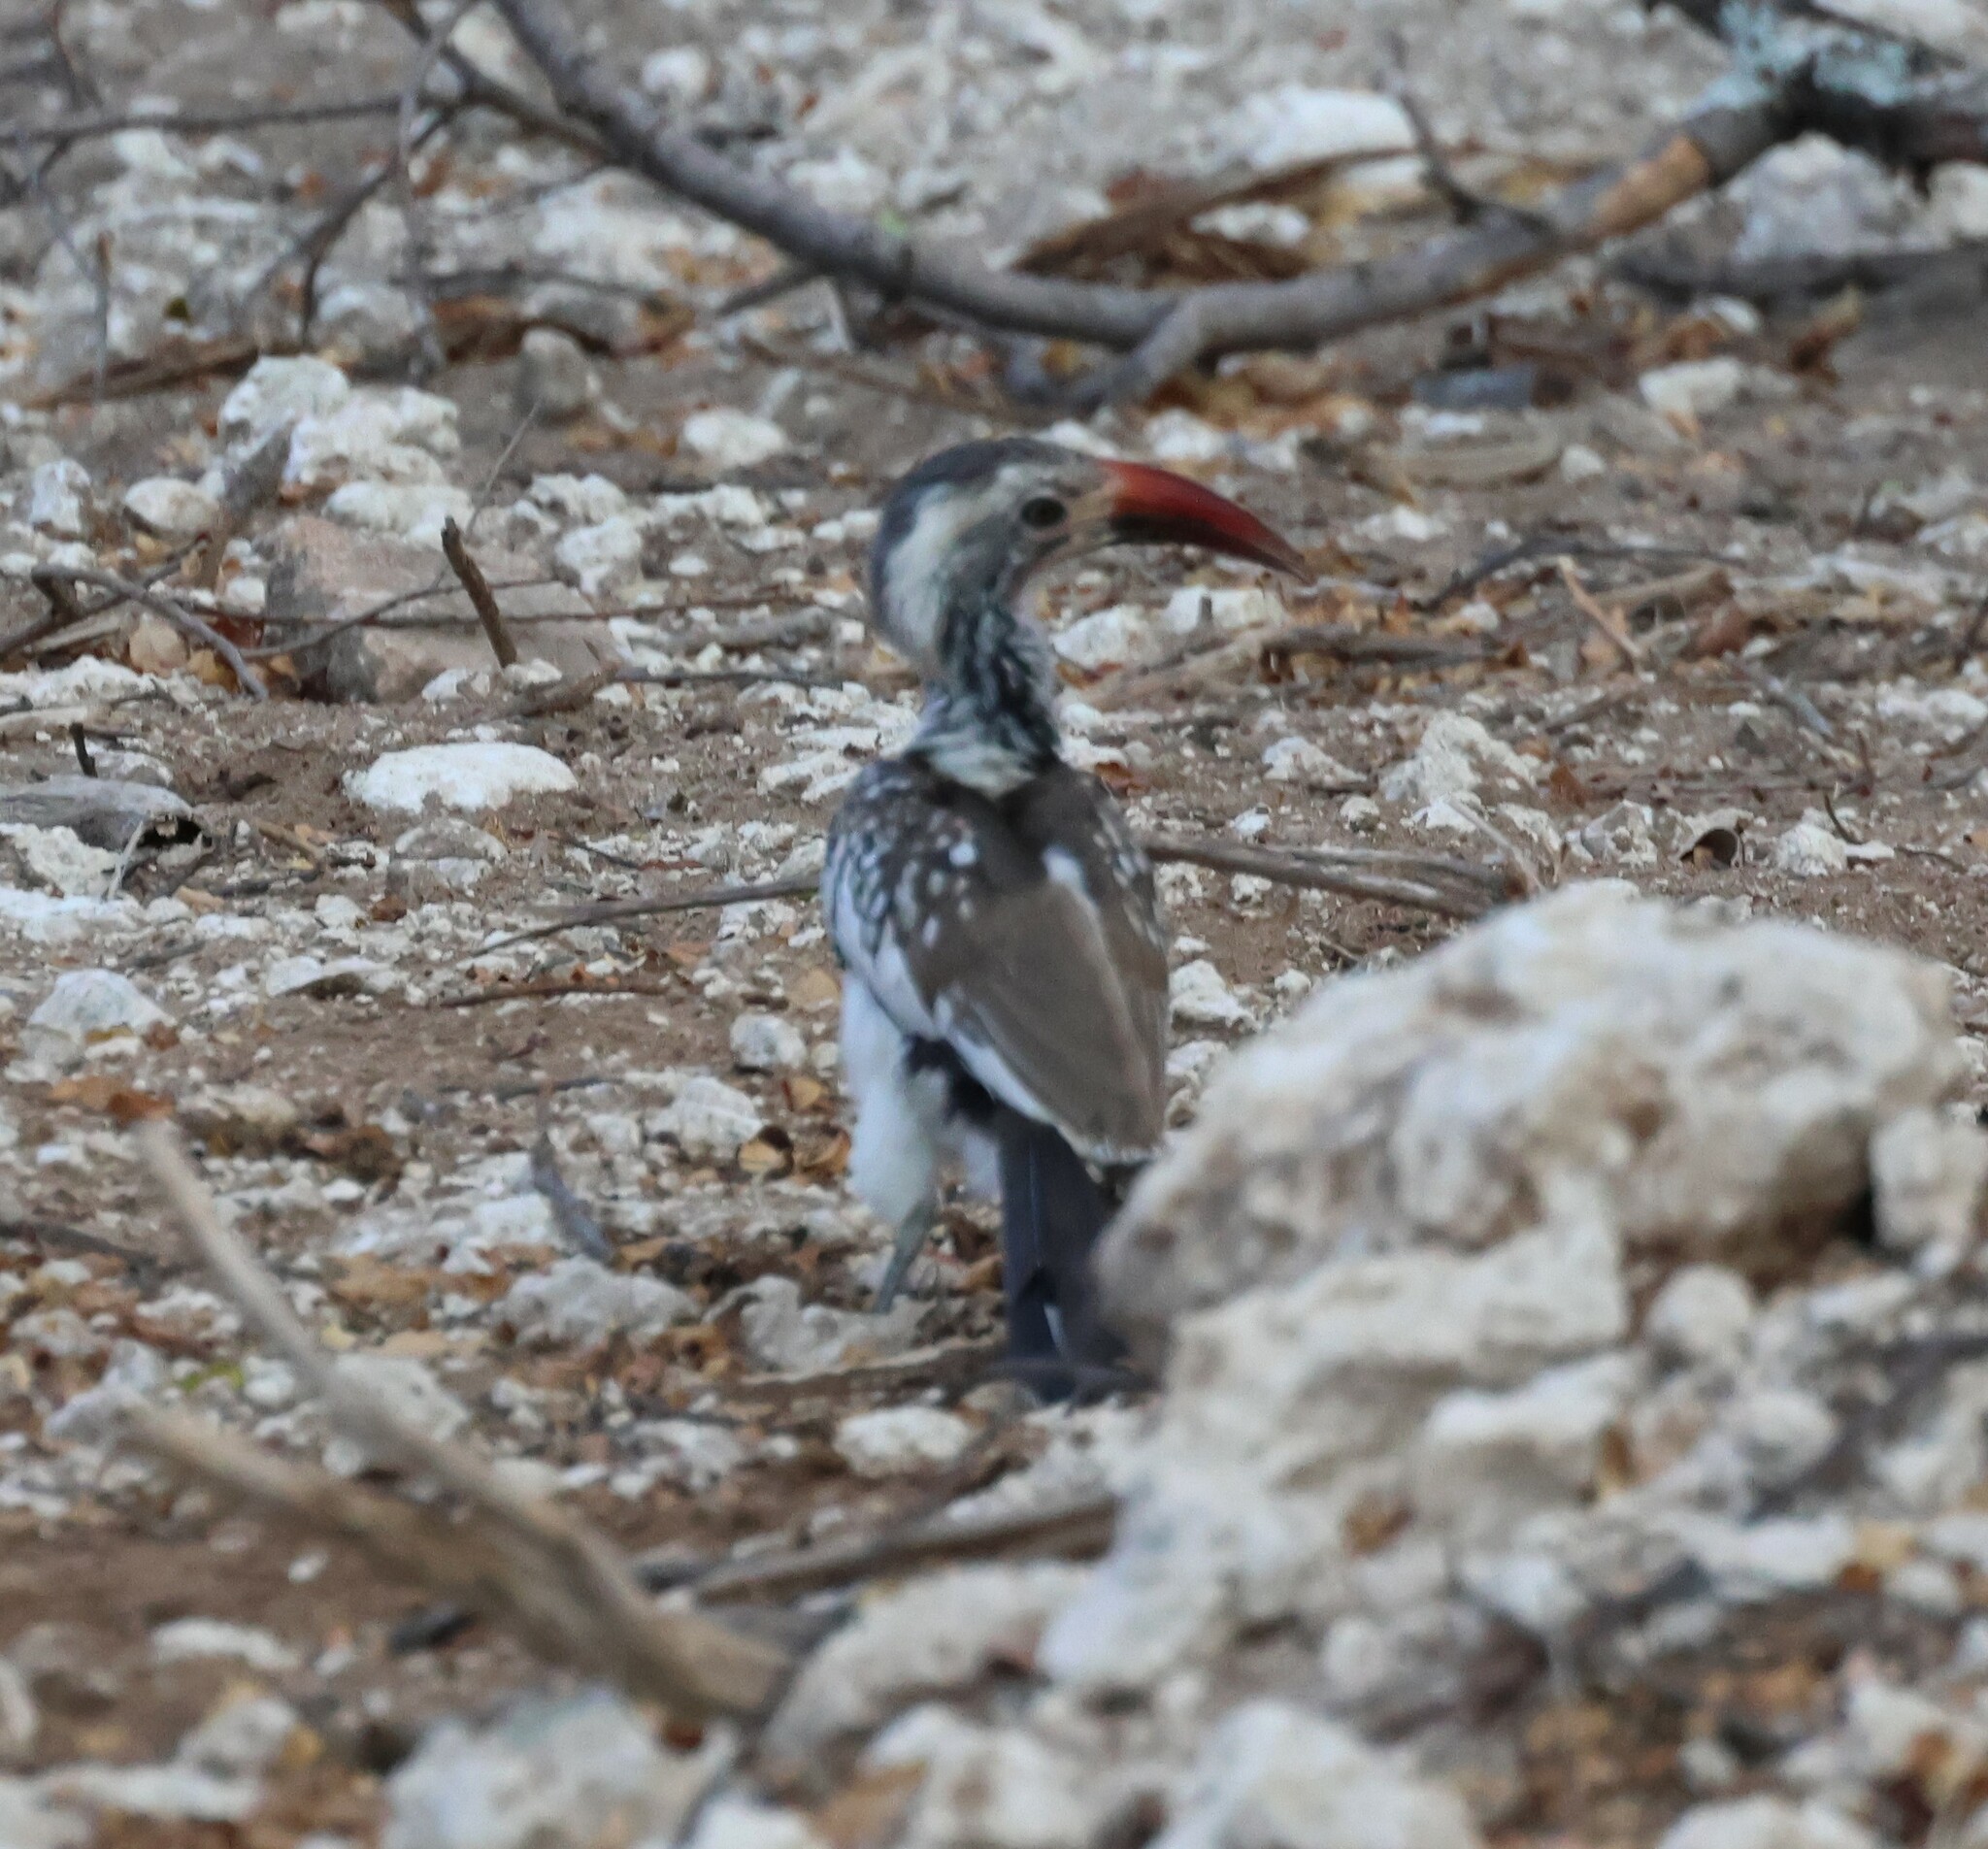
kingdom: Animalia
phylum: Chordata
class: Aves
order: Bucerotiformes
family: Bucerotidae
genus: Tockus
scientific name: Tockus rufirostris
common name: Southern red-billed hornbill
